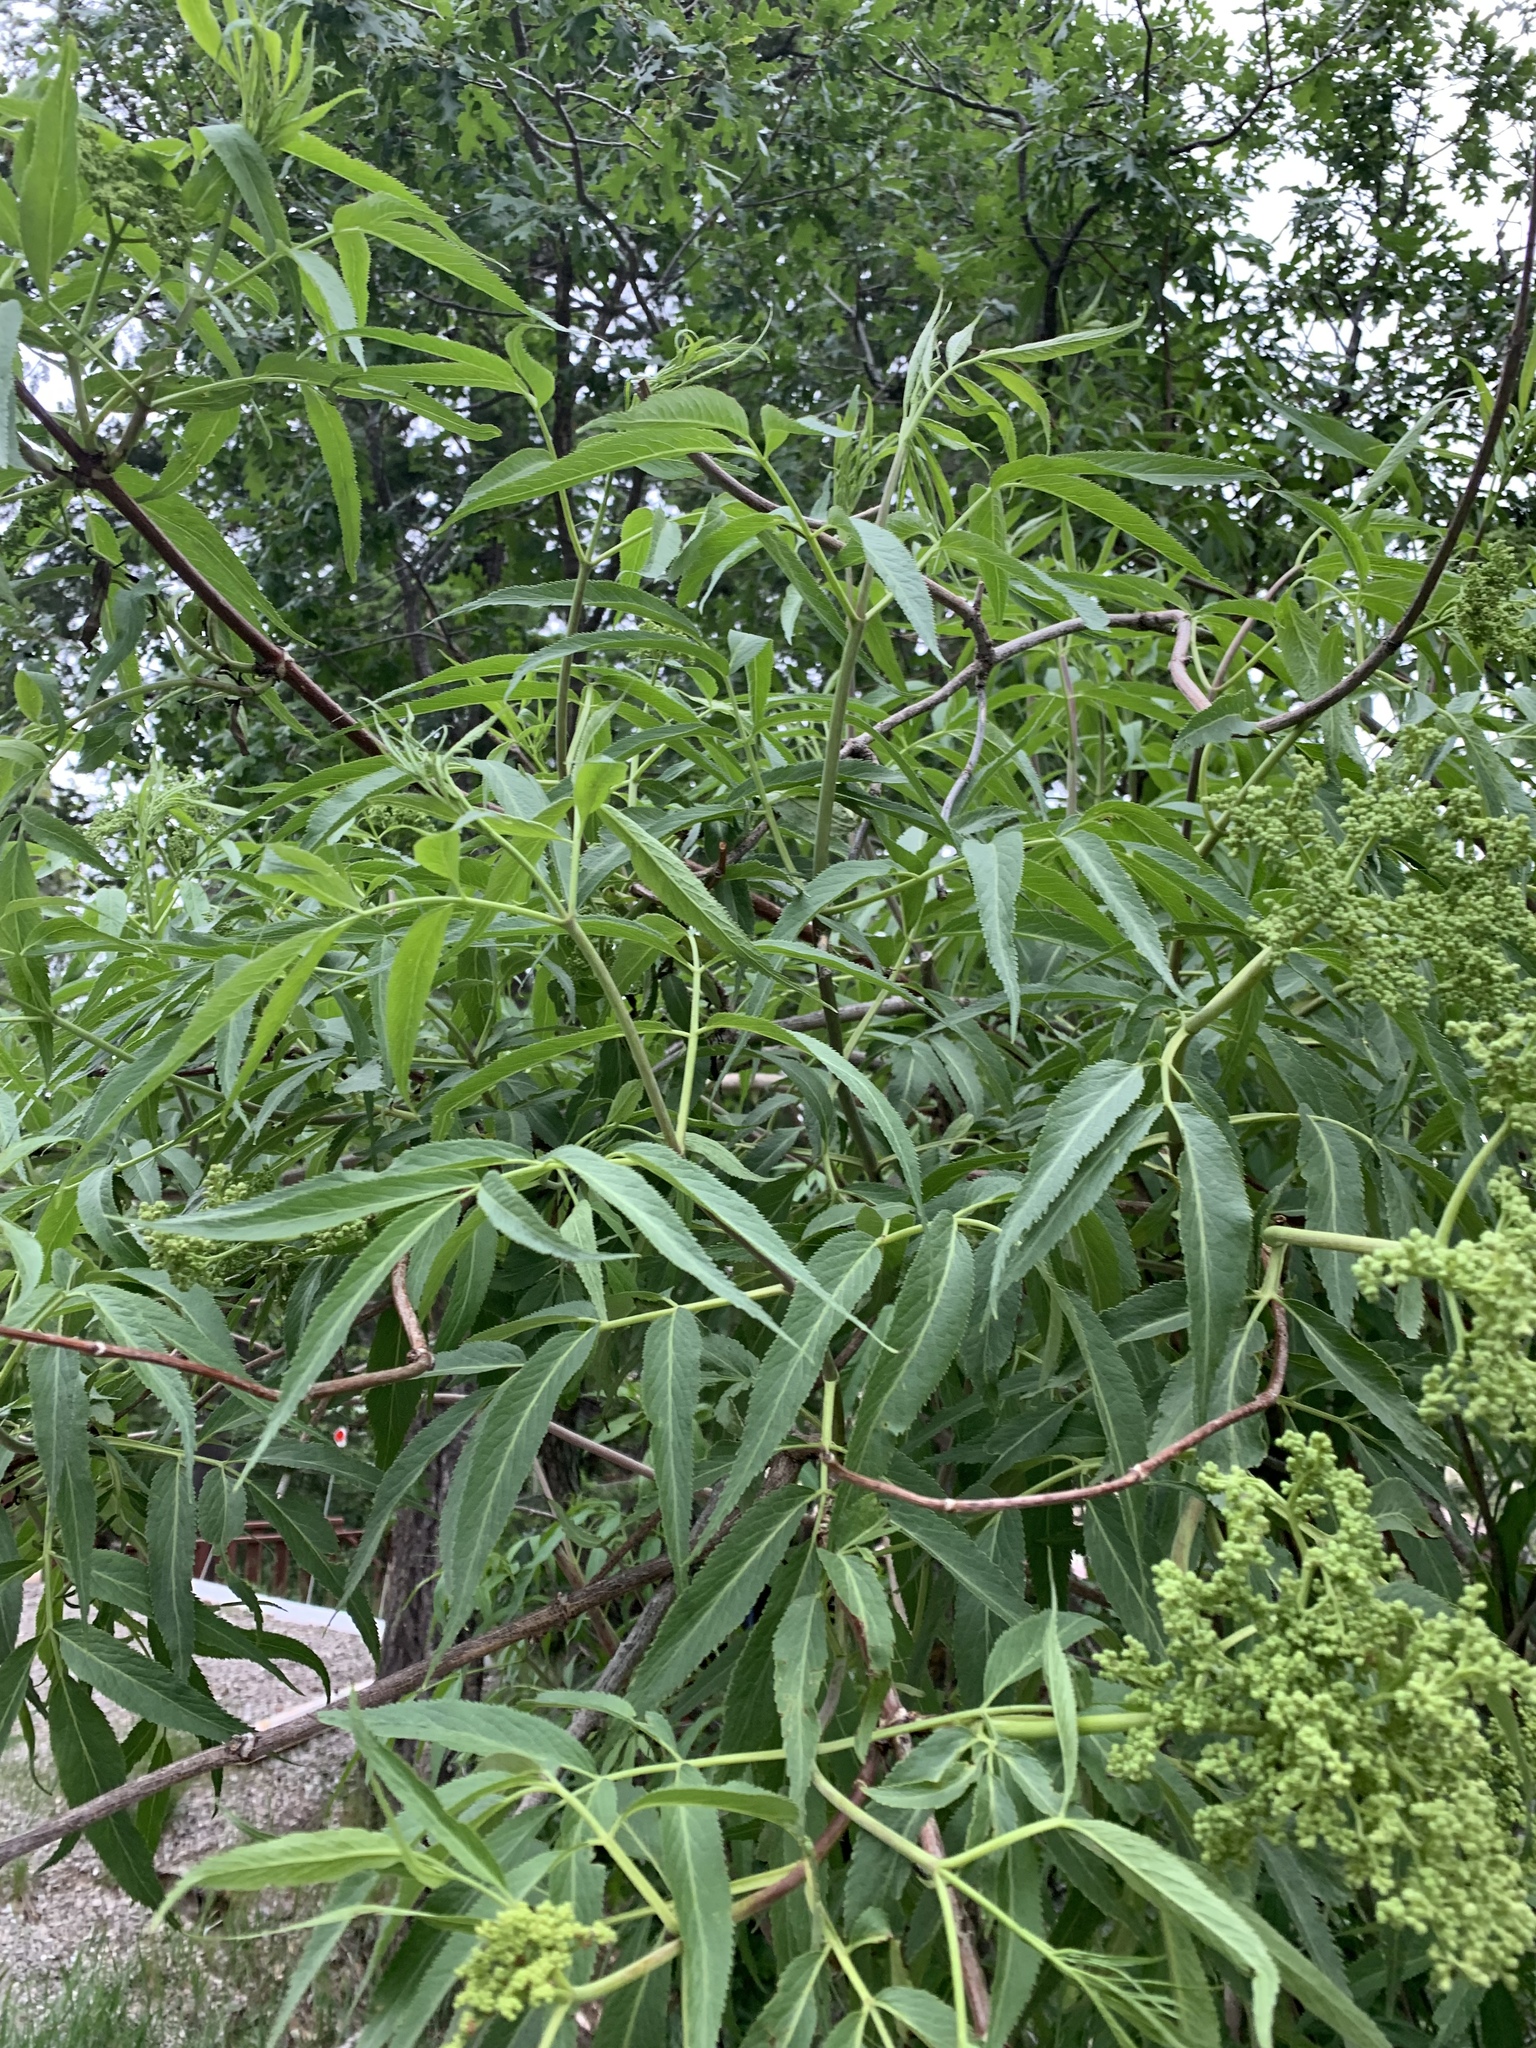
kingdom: Plantae
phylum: Tracheophyta
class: Magnoliopsida
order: Dipsacales
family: Viburnaceae
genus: Sambucus
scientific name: Sambucus cerulea
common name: Blue elder
